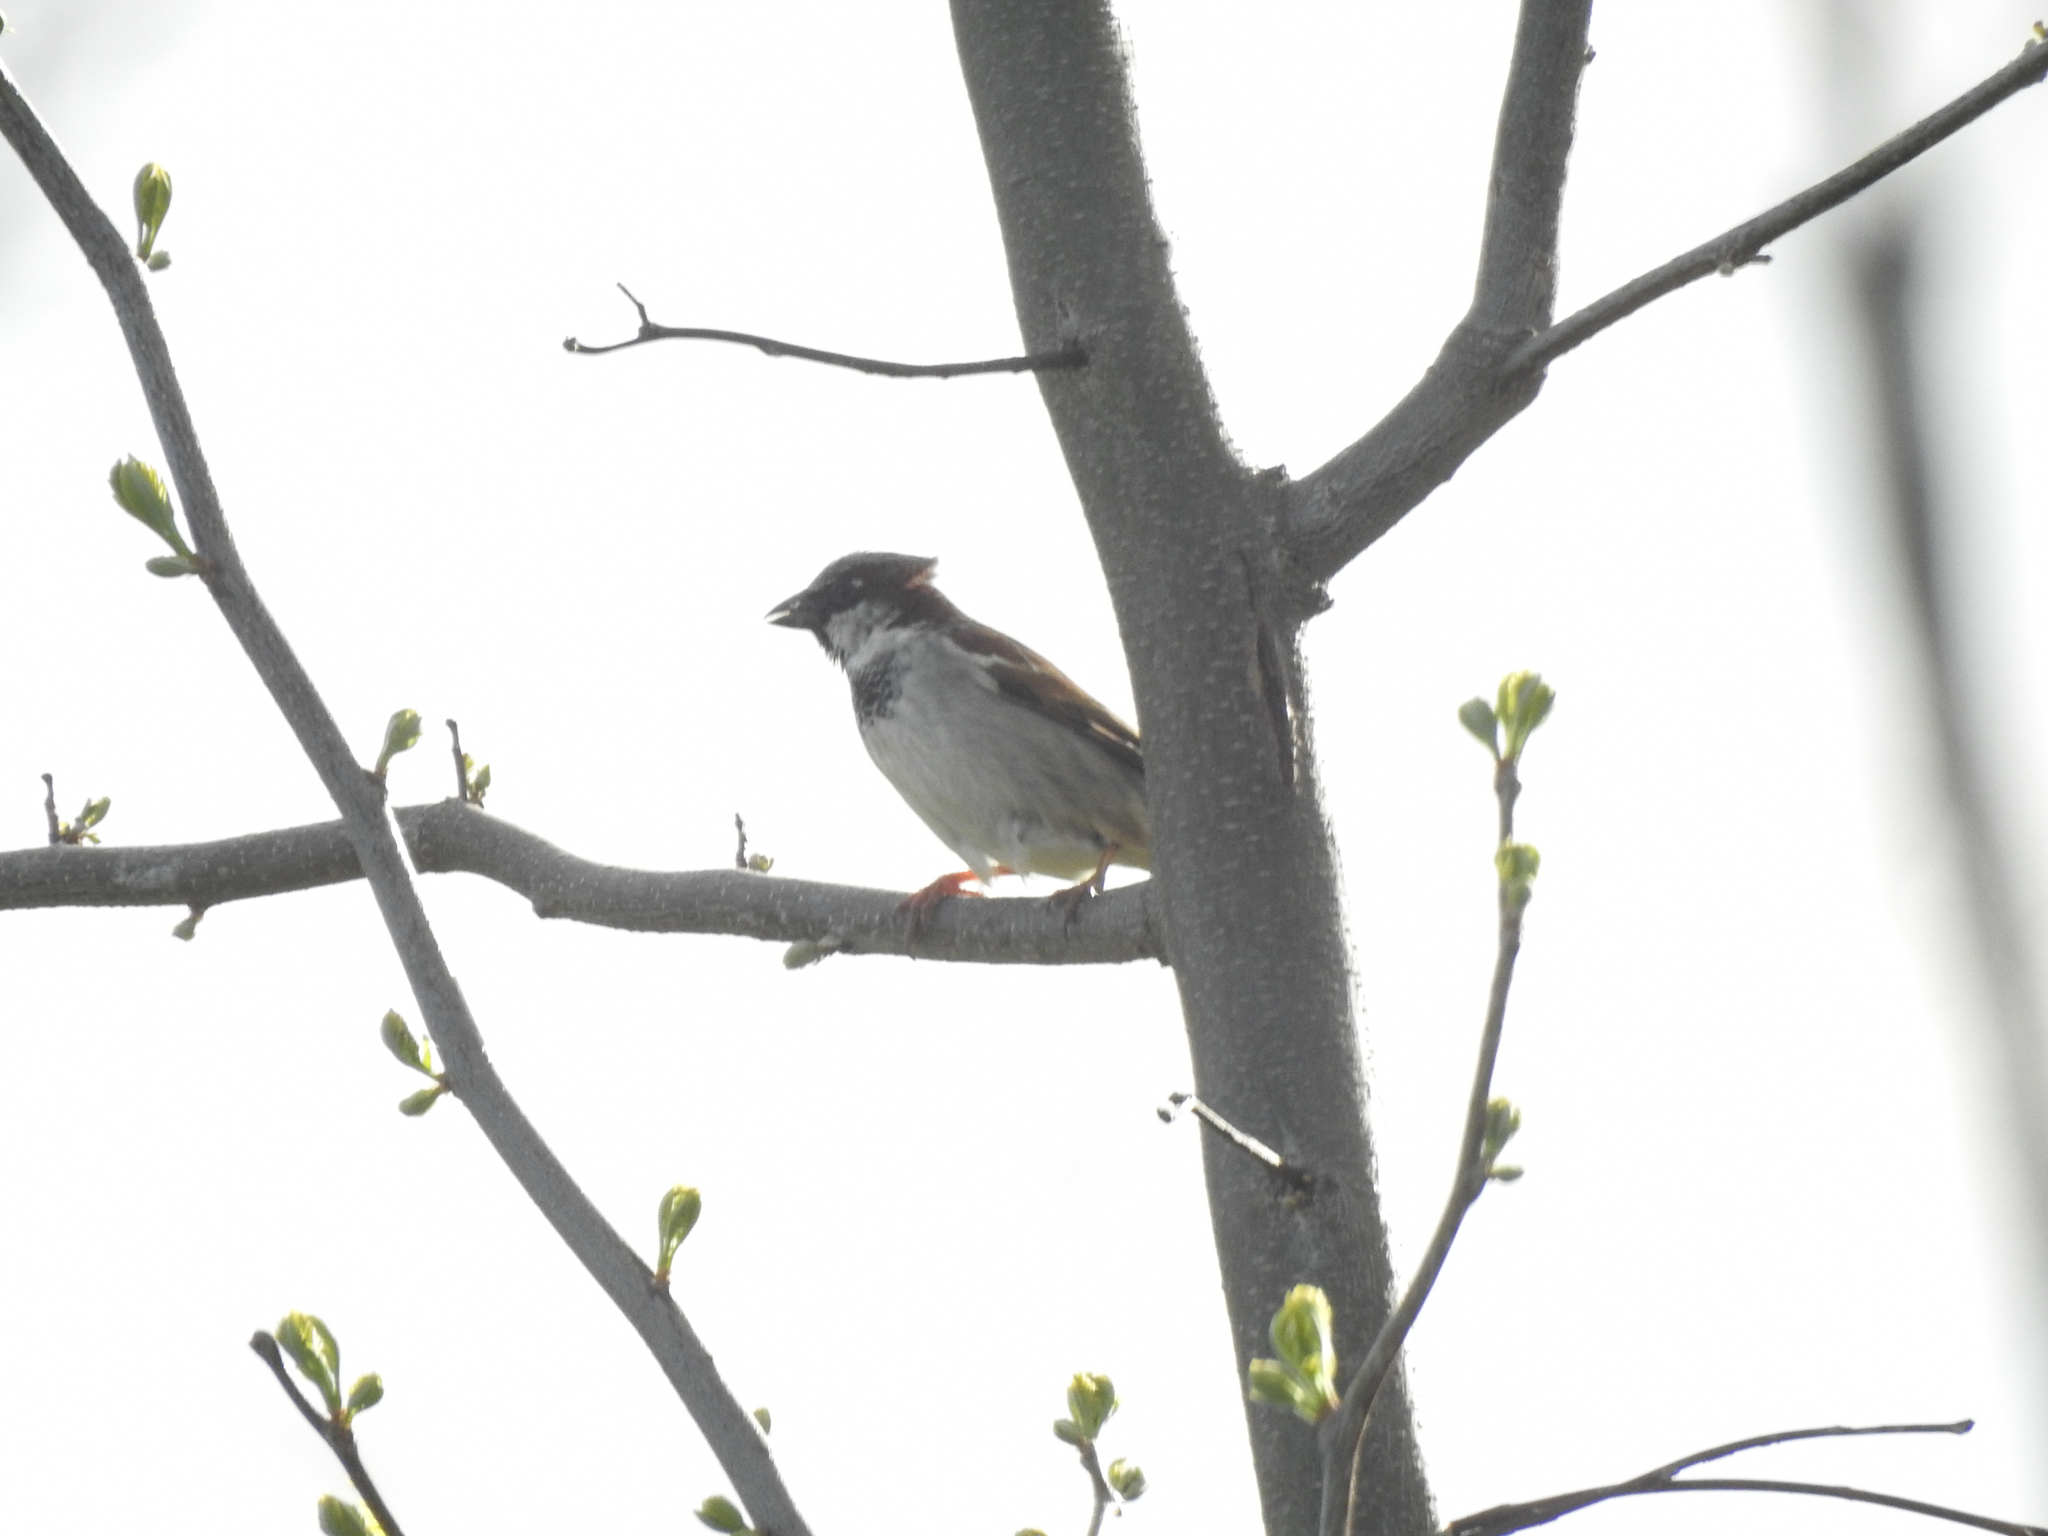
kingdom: Animalia
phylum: Chordata
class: Aves
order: Passeriformes
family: Passeridae
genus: Passer
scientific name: Passer domesticus
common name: House sparrow
